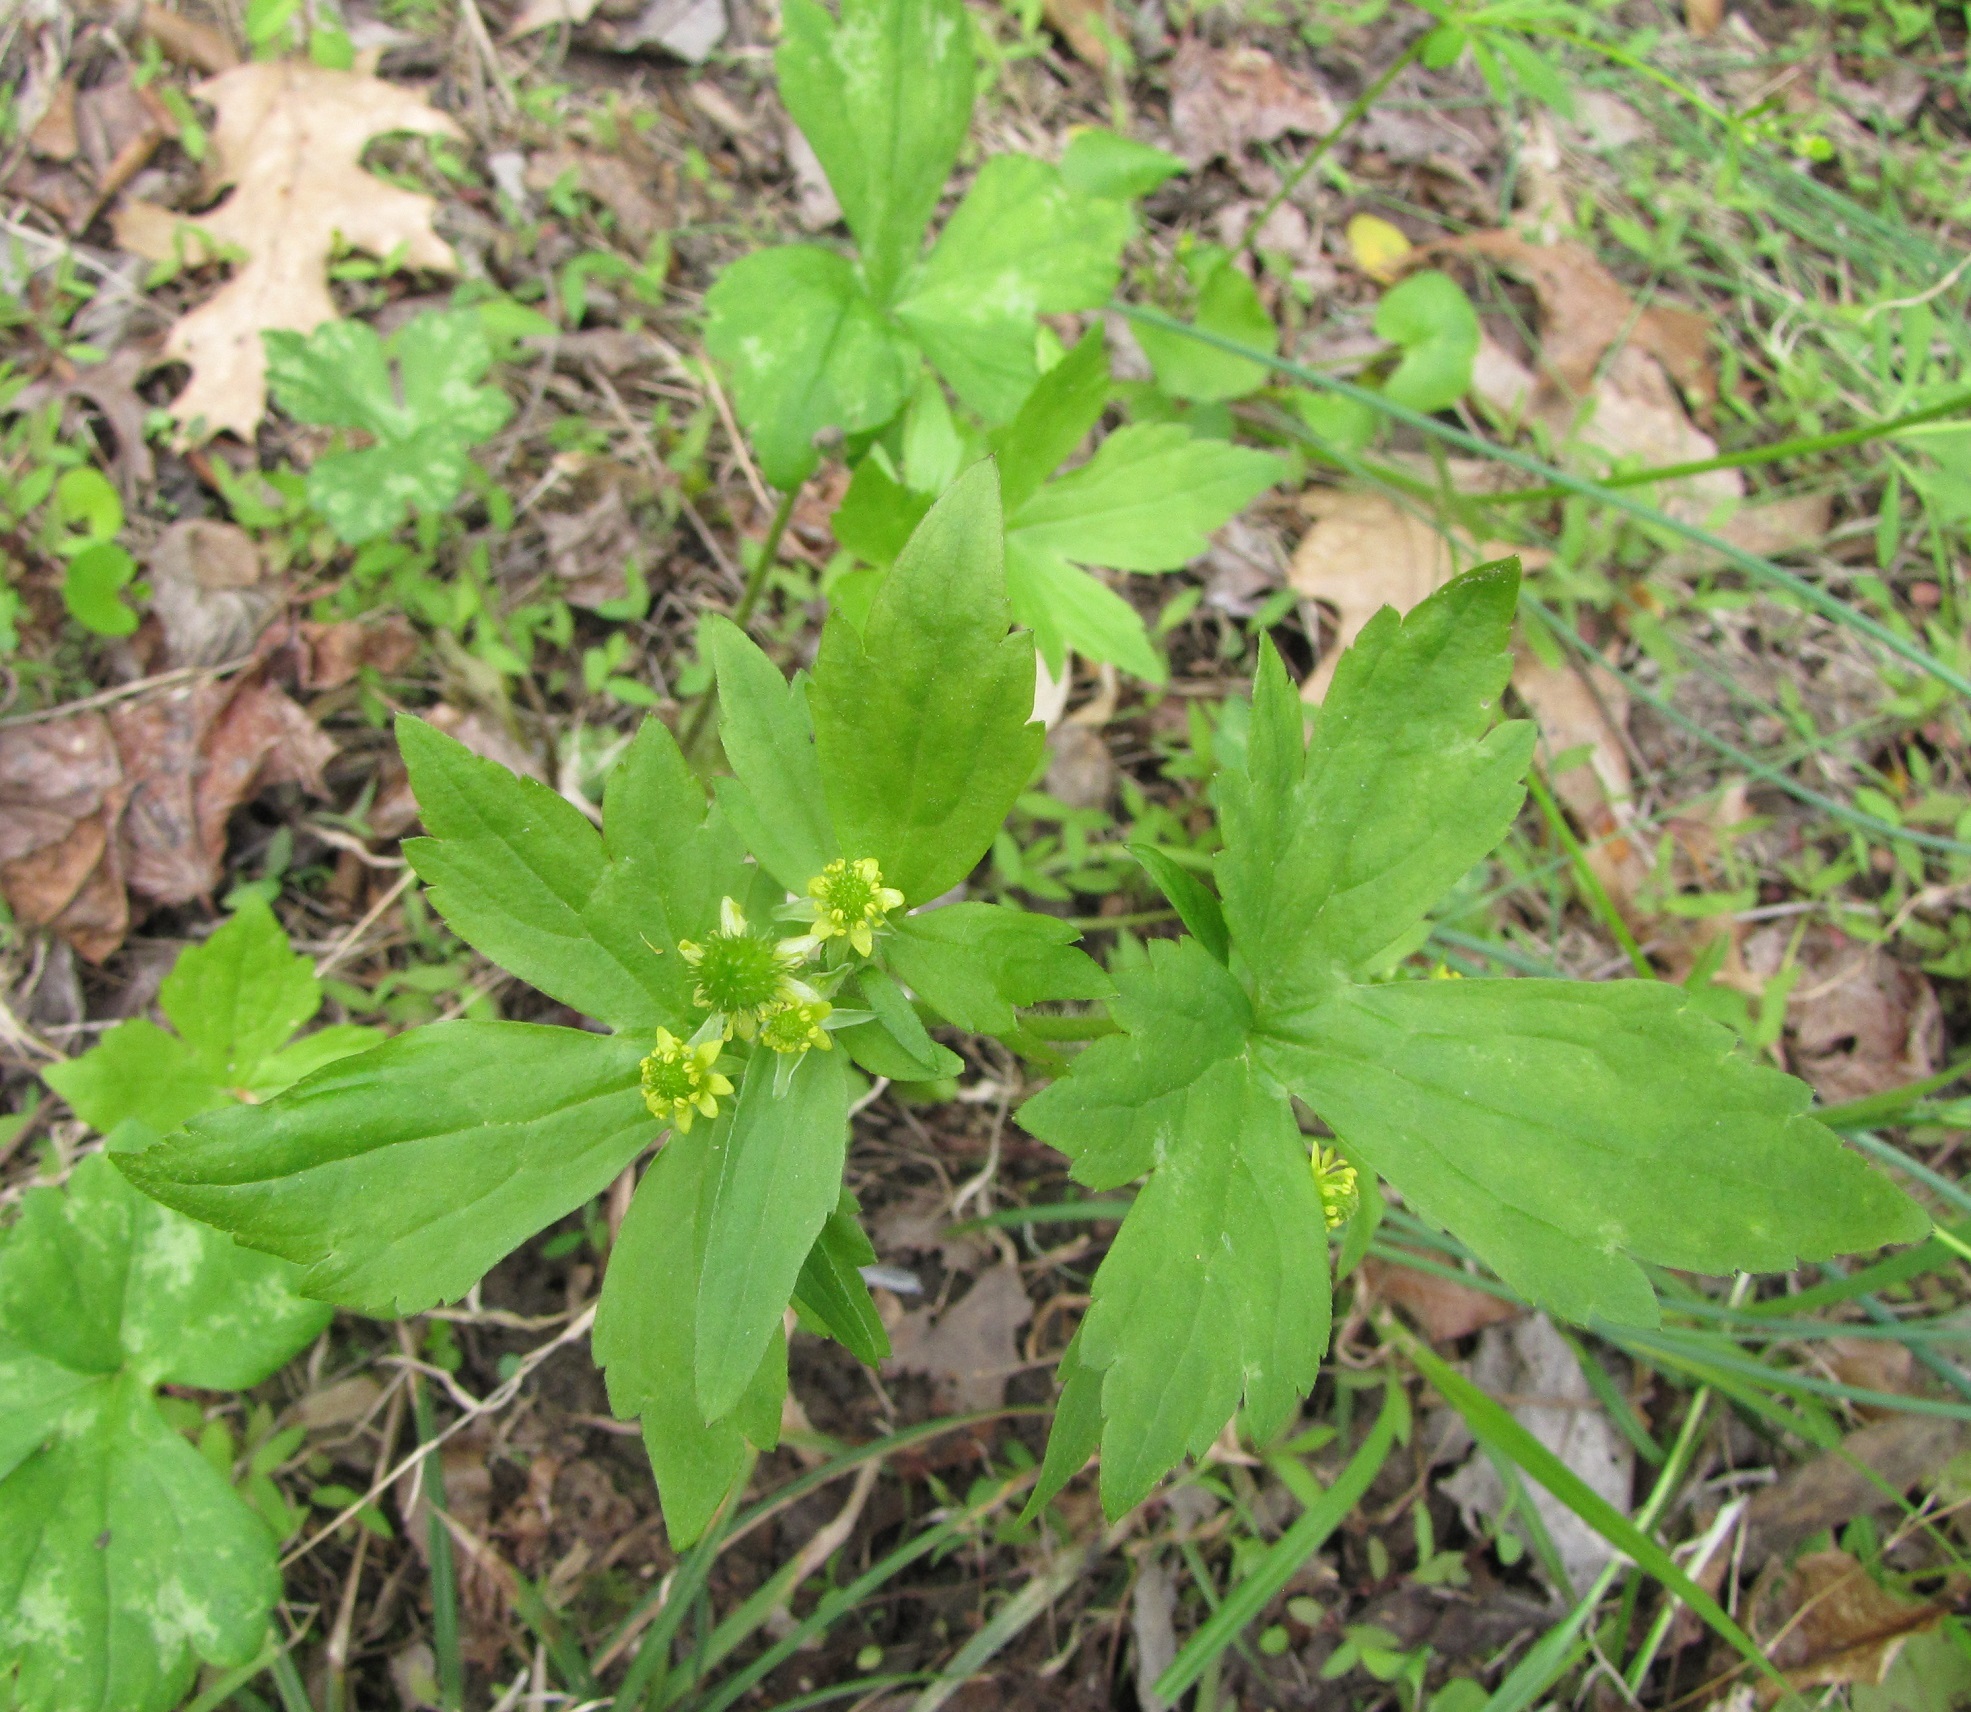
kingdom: Plantae
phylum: Tracheophyta
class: Magnoliopsida
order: Ranunculales
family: Ranunculaceae
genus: Ranunculus
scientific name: Ranunculus recurvatus
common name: Blisterwort
